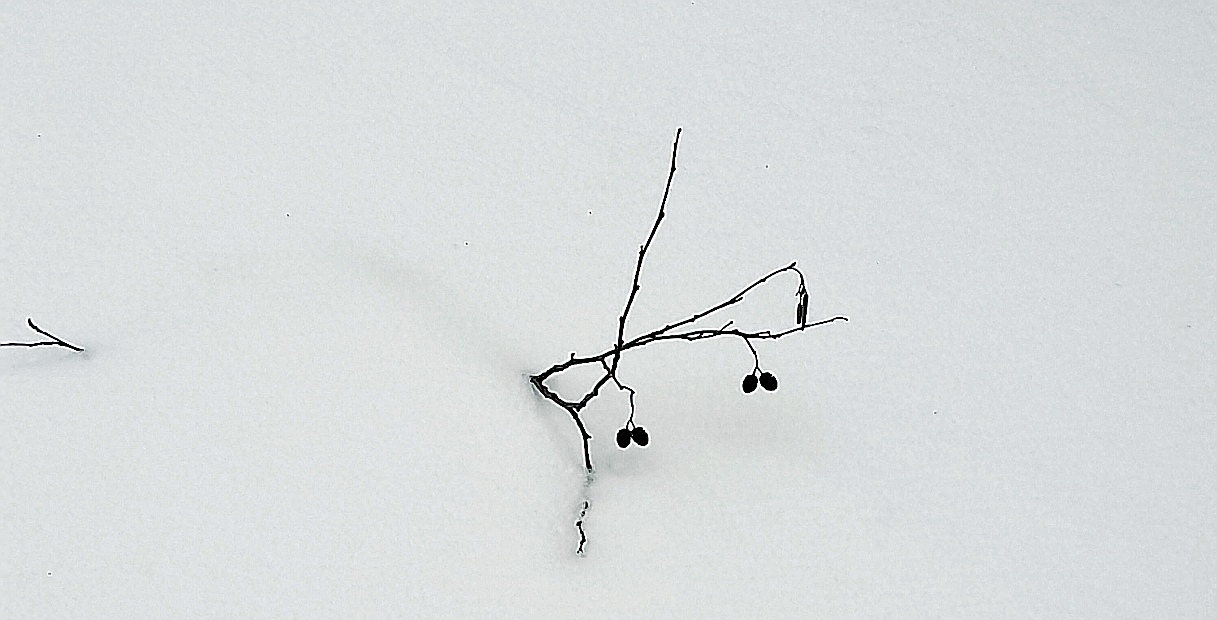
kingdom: Plantae
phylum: Tracheophyta
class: Magnoliopsida
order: Fagales
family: Betulaceae
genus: Alnus
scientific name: Alnus glutinosa
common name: Black alder
